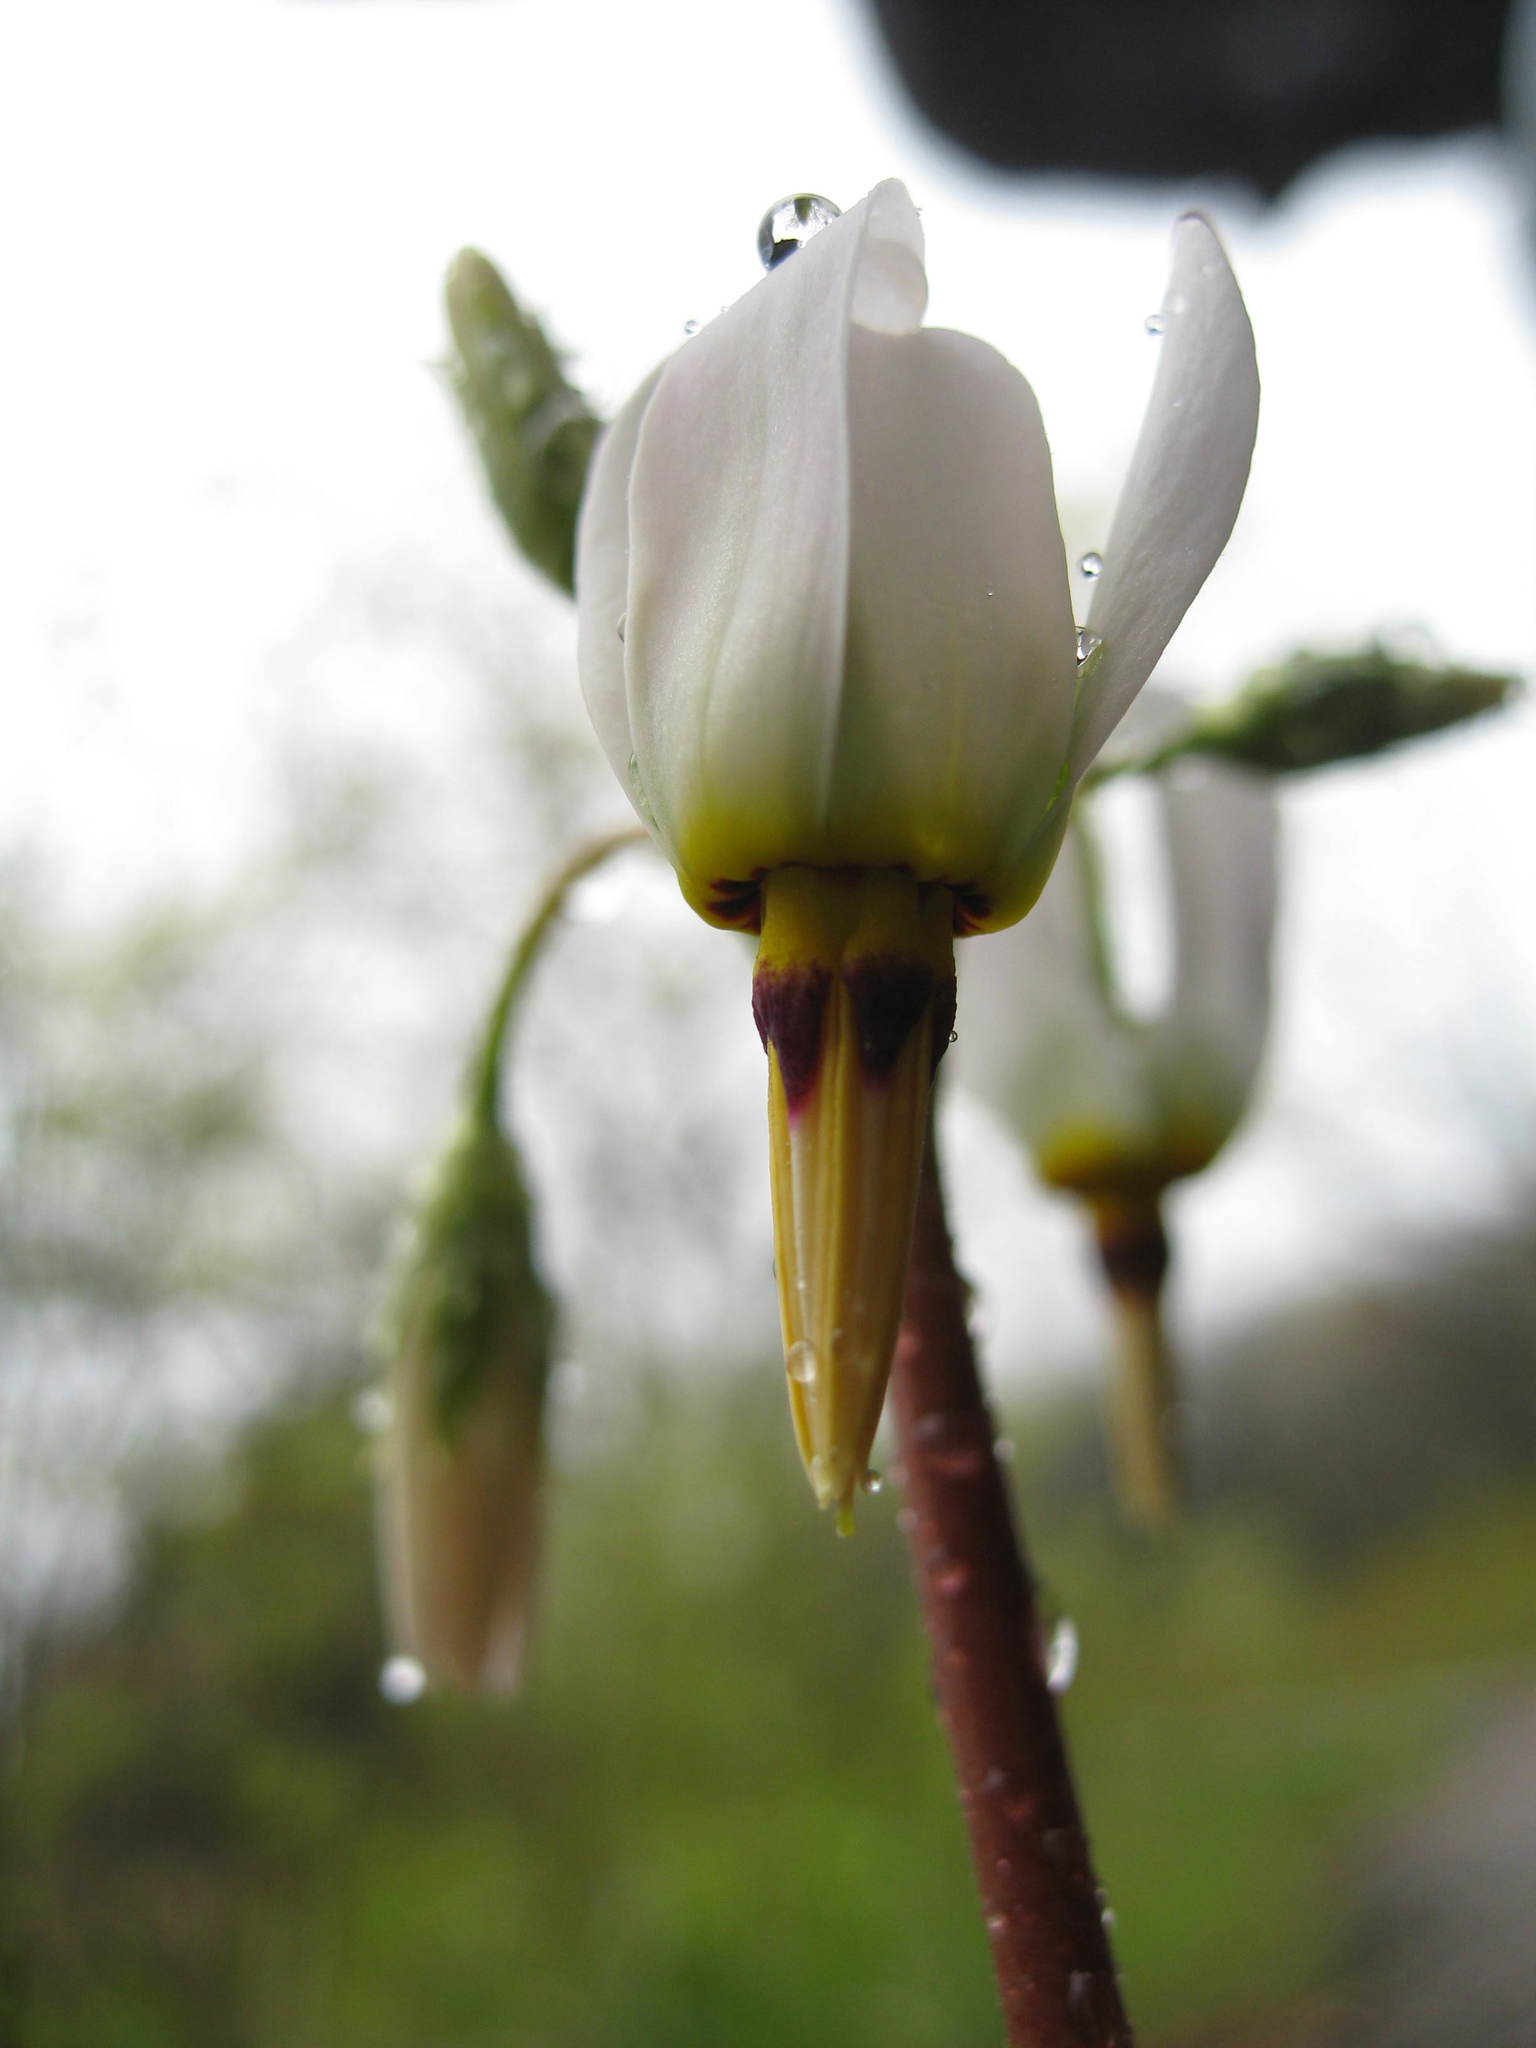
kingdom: Plantae
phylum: Tracheophyta
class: Magnoliopsida
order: Ericales
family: Primulaceae
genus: Dodecatheon
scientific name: Dodecatheon meadia
